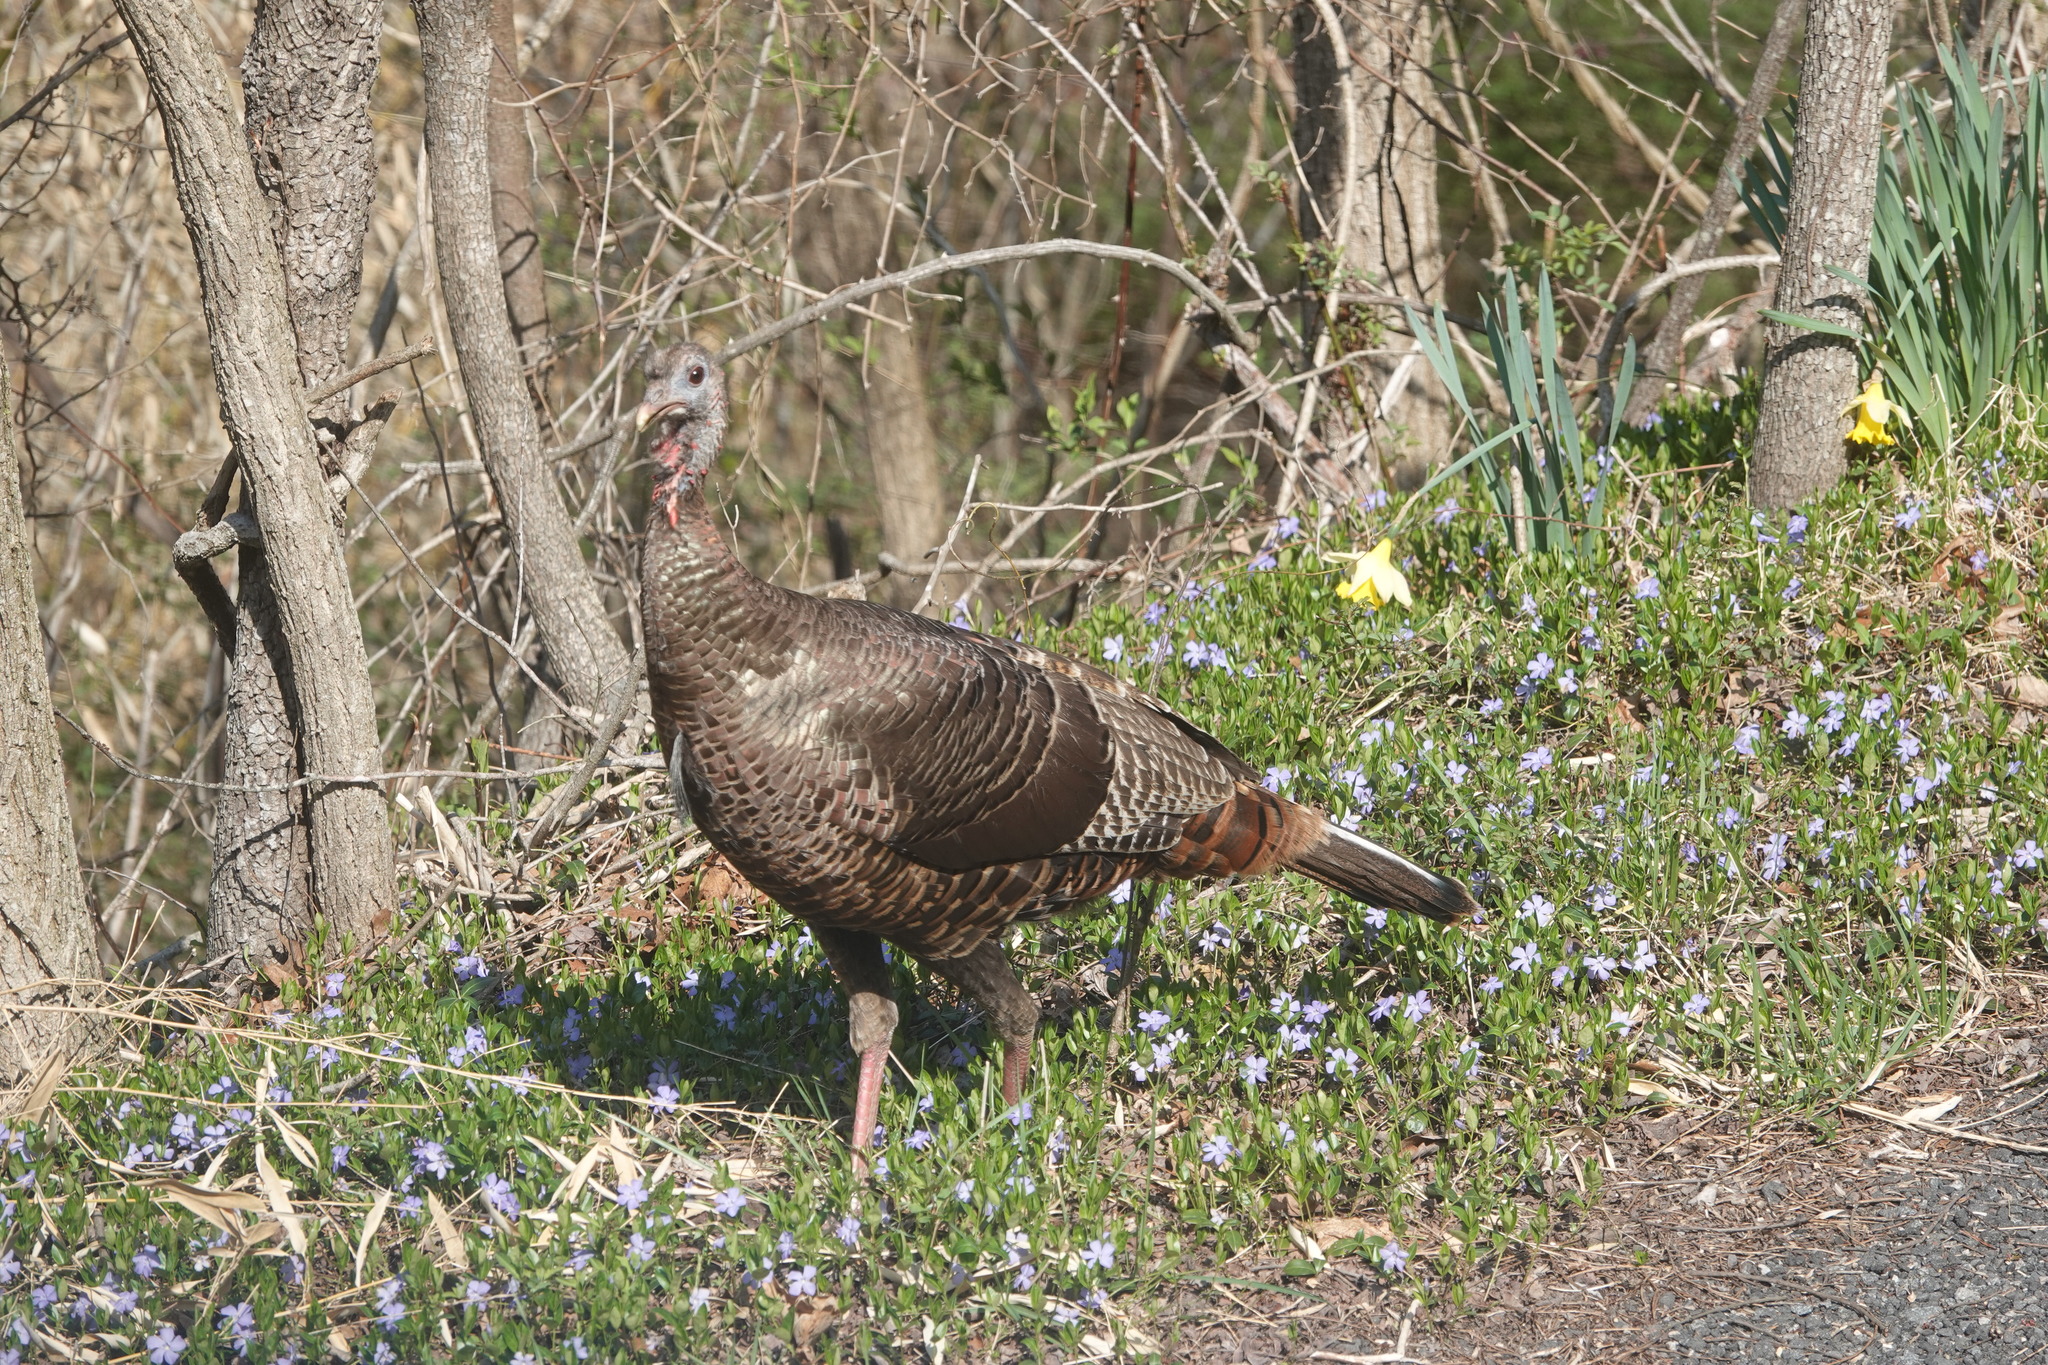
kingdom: Animalia
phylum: Chordata
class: Aves
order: Galliformes
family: Phasianidae
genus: Meleagris
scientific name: Meleagris gallopavo
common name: Wild turkey
